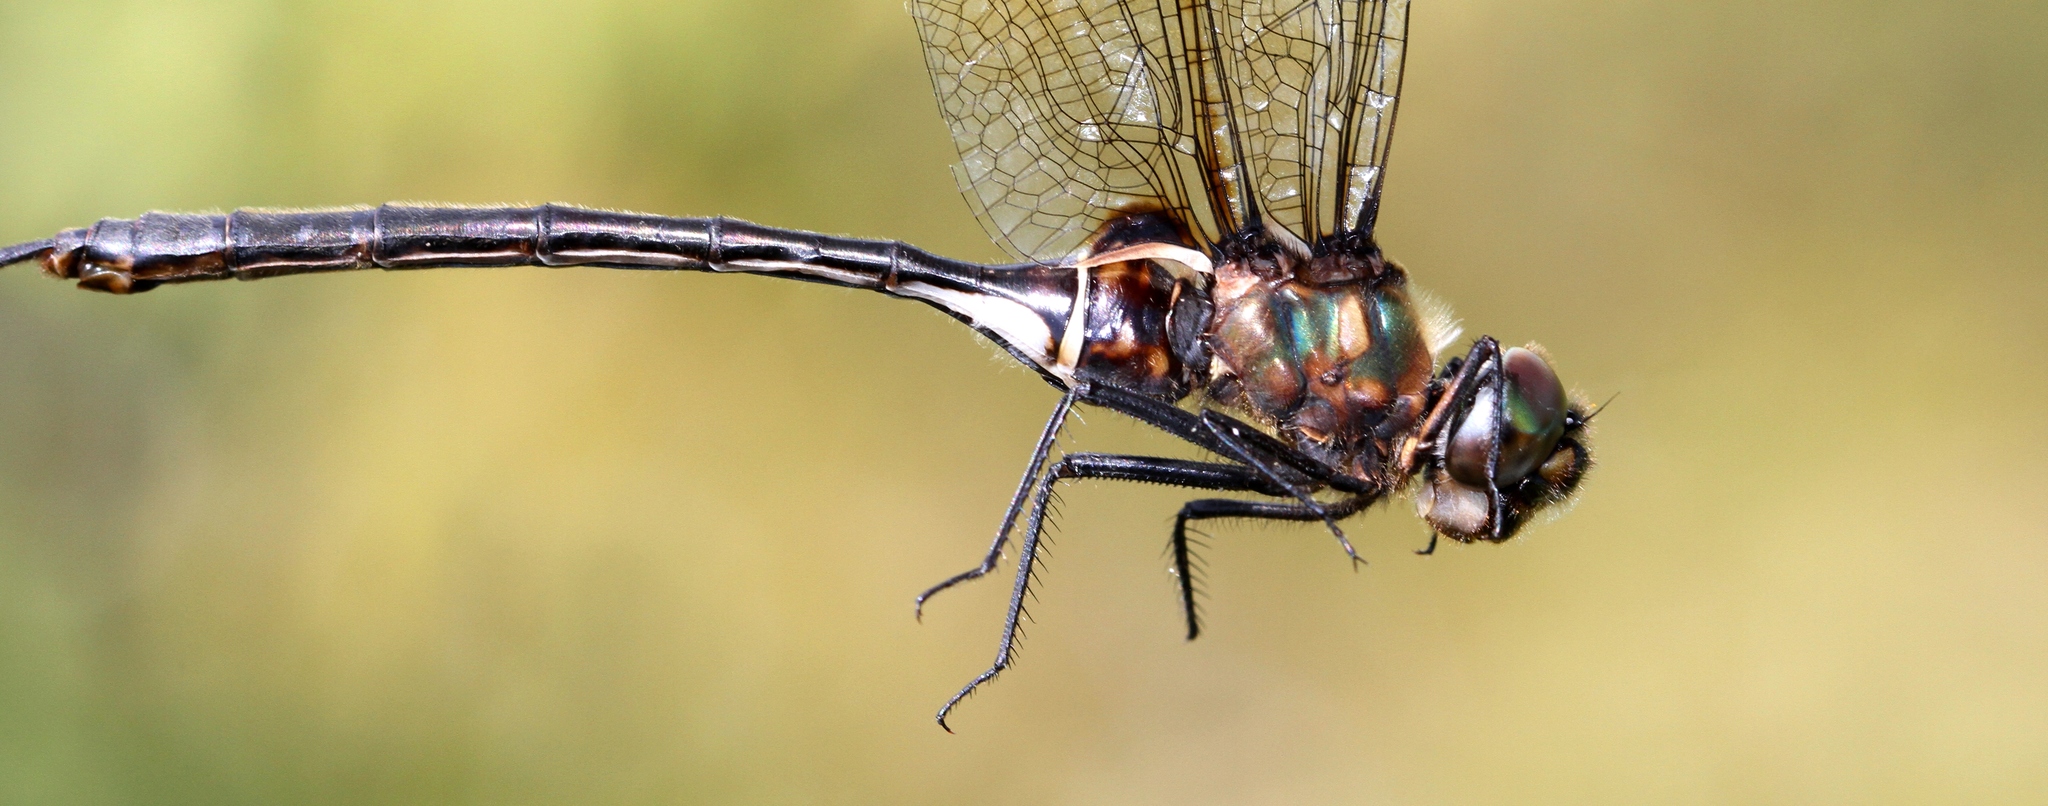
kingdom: Animalia
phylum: Arthropoda
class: Insecta
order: Odonata
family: Corduliidae
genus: Somatochlora
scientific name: Somatochlora franklini
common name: Delicate emerald
